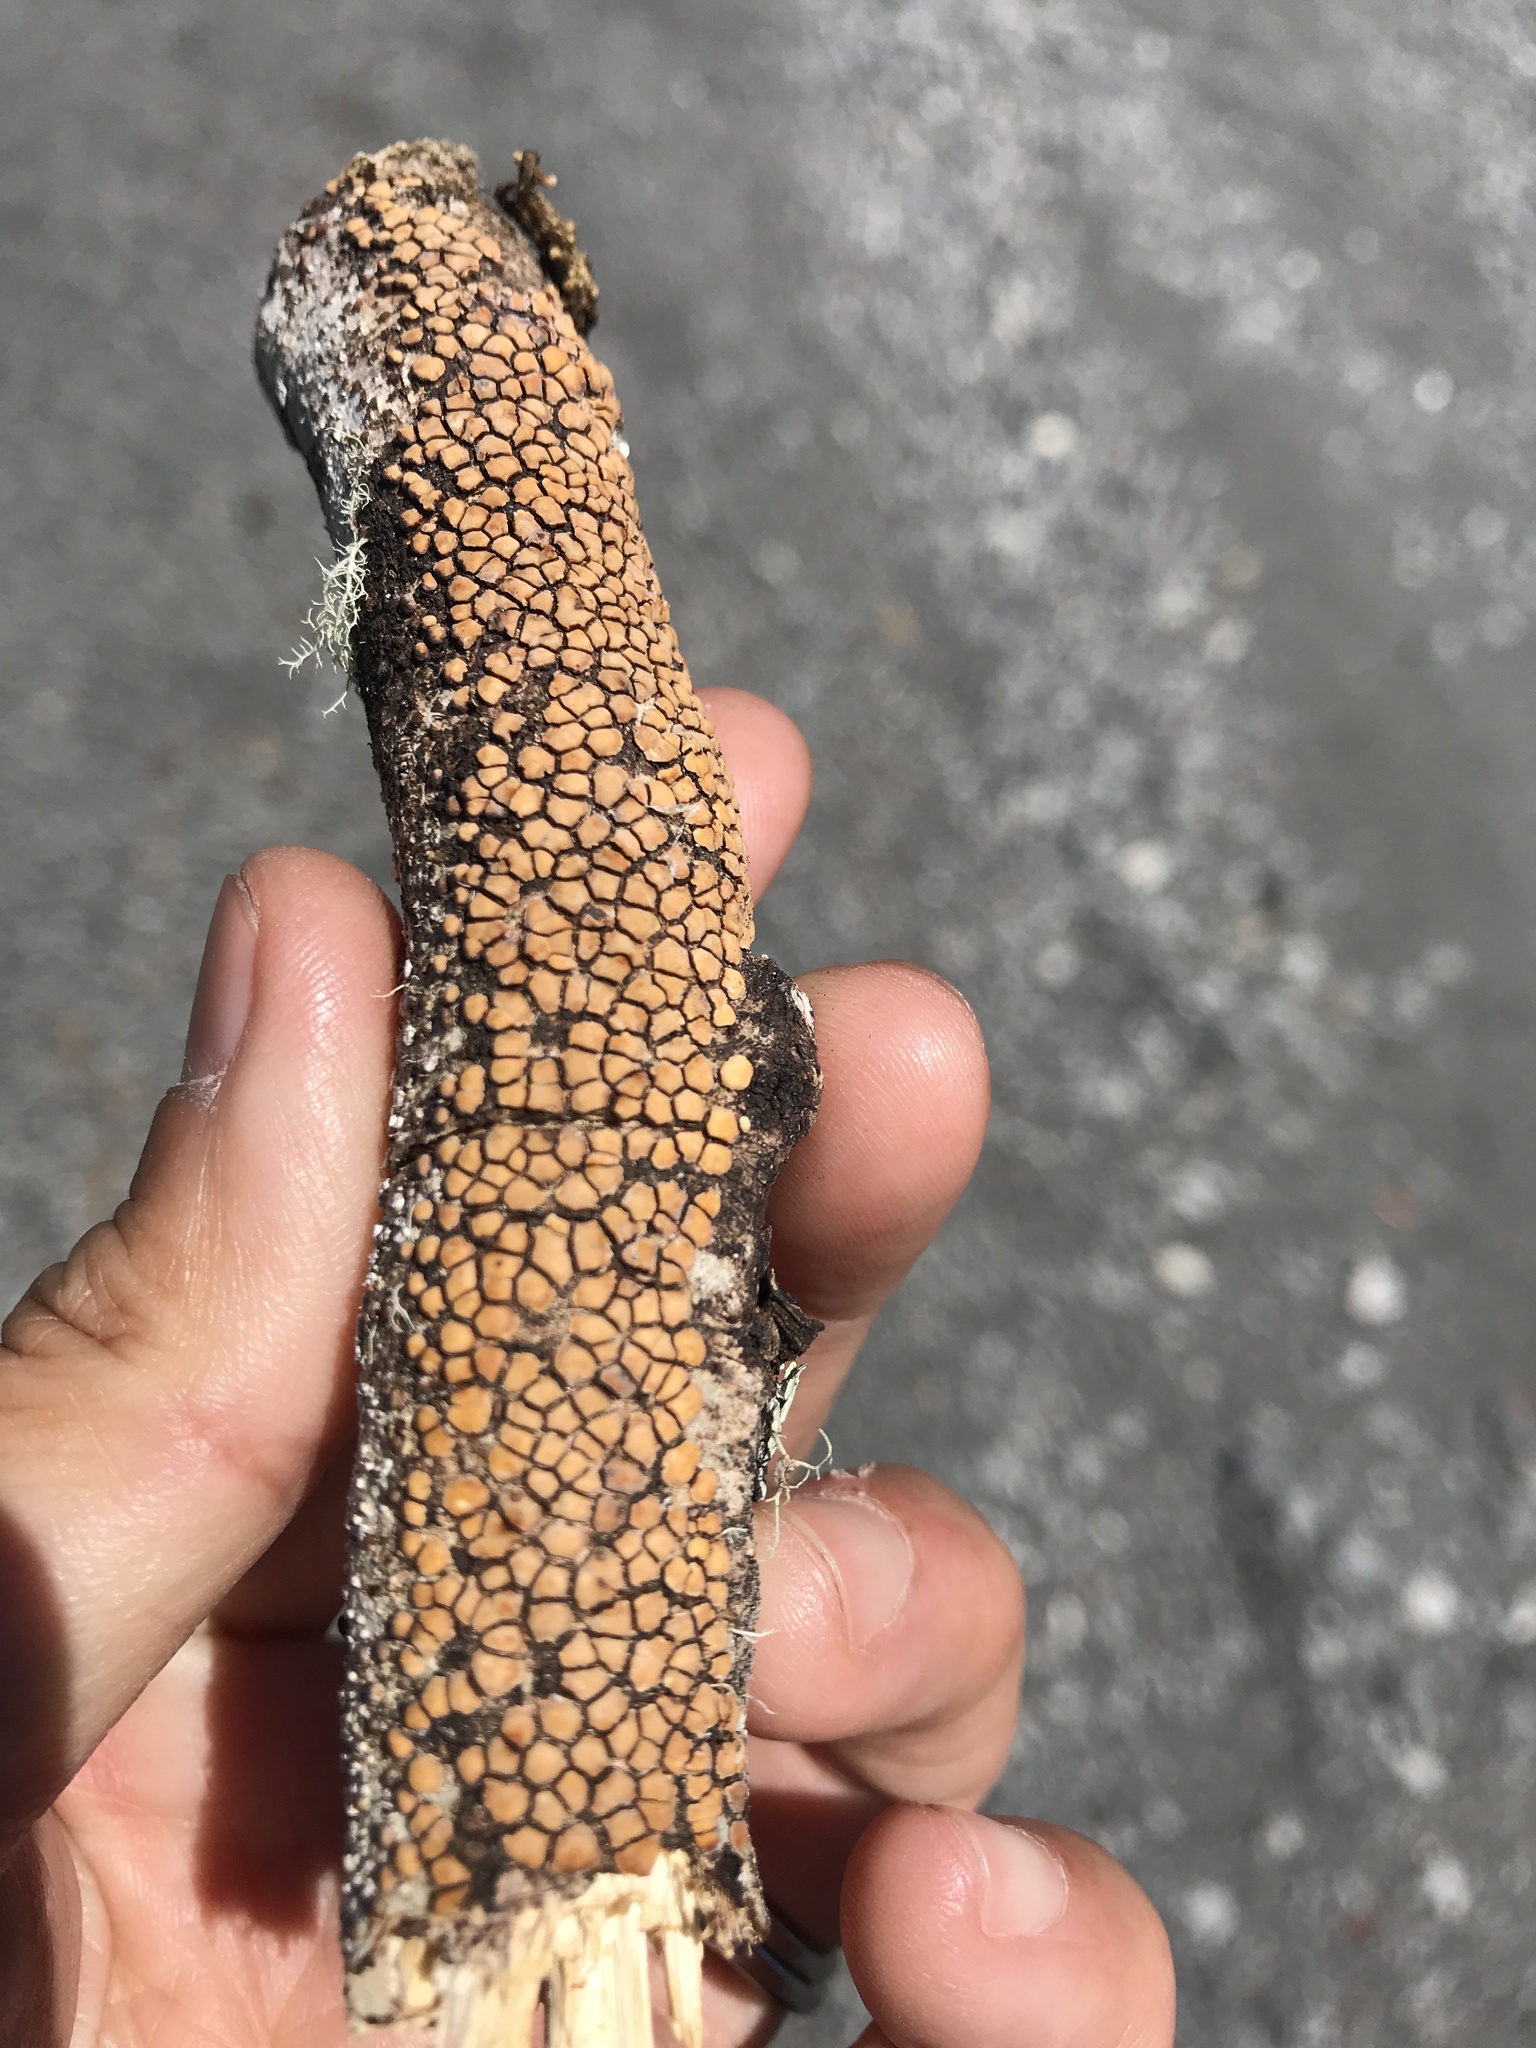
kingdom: Fungi
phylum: Basidiomycota
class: Agaricomycetes
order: Russulales
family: Stereaceae
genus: Aleurodiscus
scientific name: Aleurodiscus berggrenii
